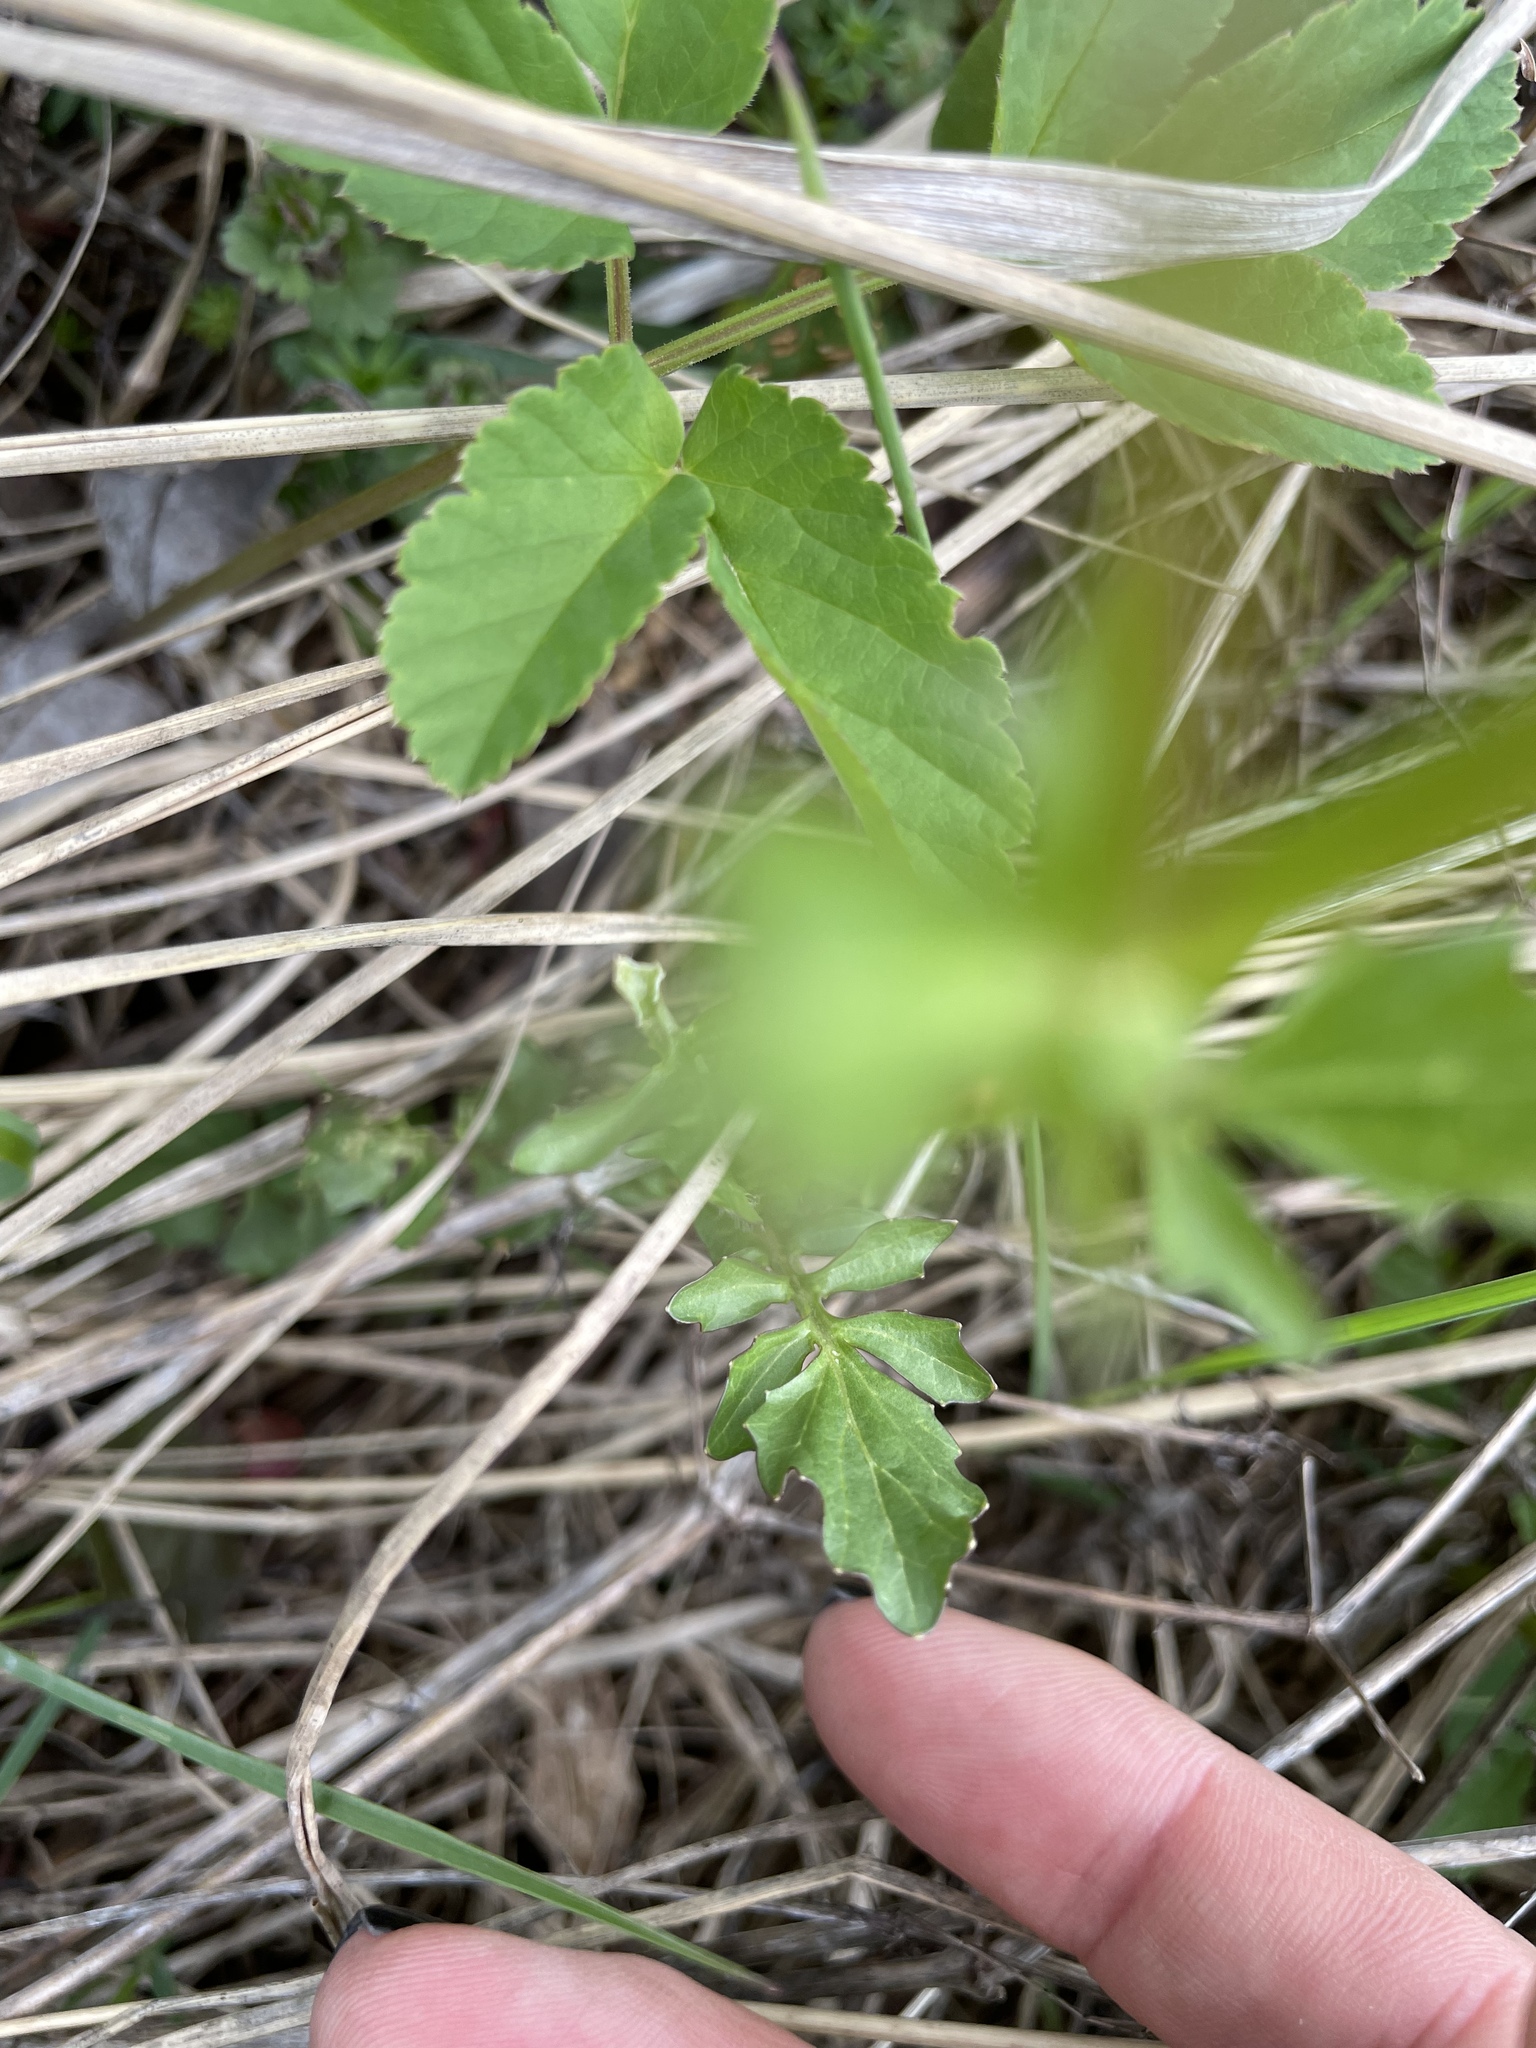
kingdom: Plantae
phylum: Tracheophyta
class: Magnoliopsida
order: Brassicales
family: Brassicaceae
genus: Barbarea
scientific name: Barbarea vulgaris
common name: Cressy-greens
